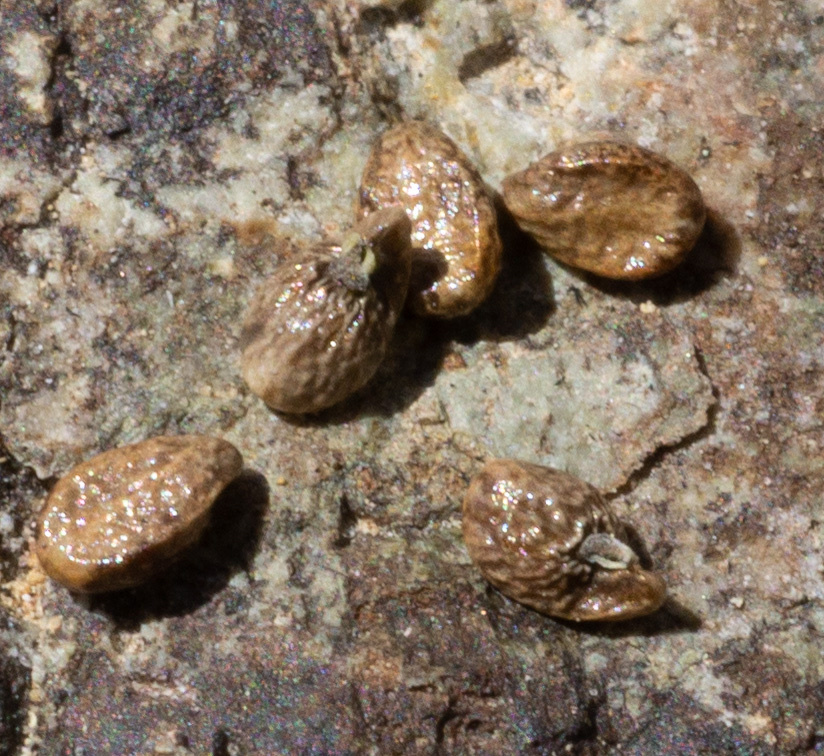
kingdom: Plantae
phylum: Tracheophyta
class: Magnoliopsida
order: Boraginales
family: Boraginaceae
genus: Plagiobothrys
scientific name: Plagiobothrys glomeratus
